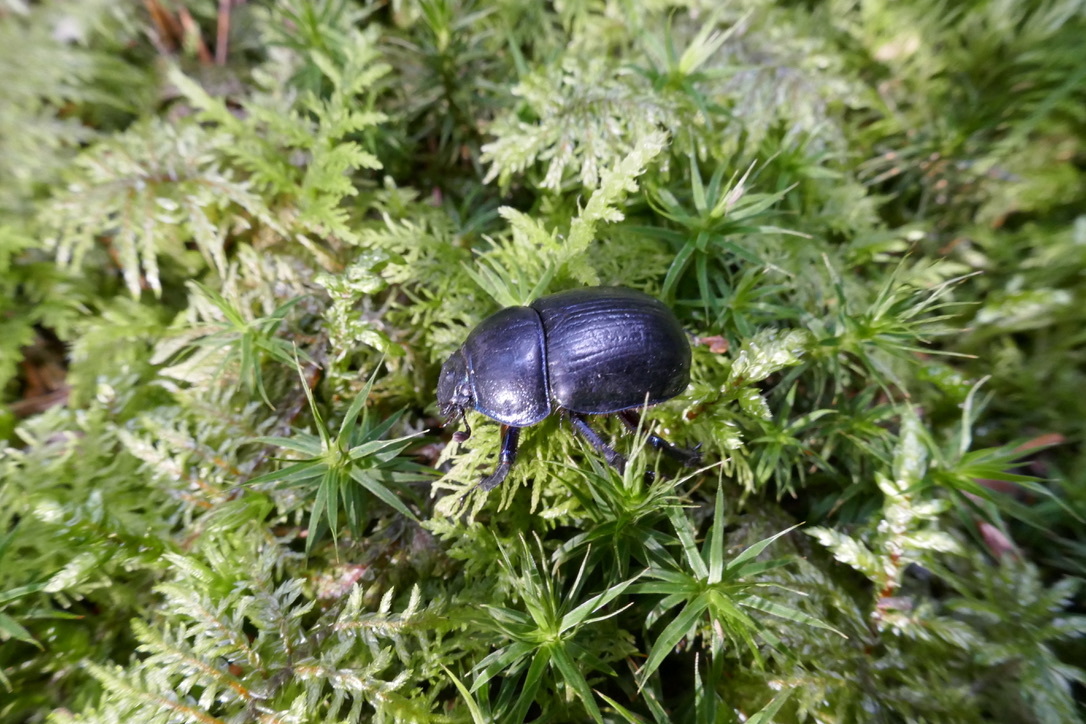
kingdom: Animalia
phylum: Arthropoda
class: Insecta
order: Coleoptera
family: Geotrupidae
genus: Anoplotrupes
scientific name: Anoplotrupes stercorosus
